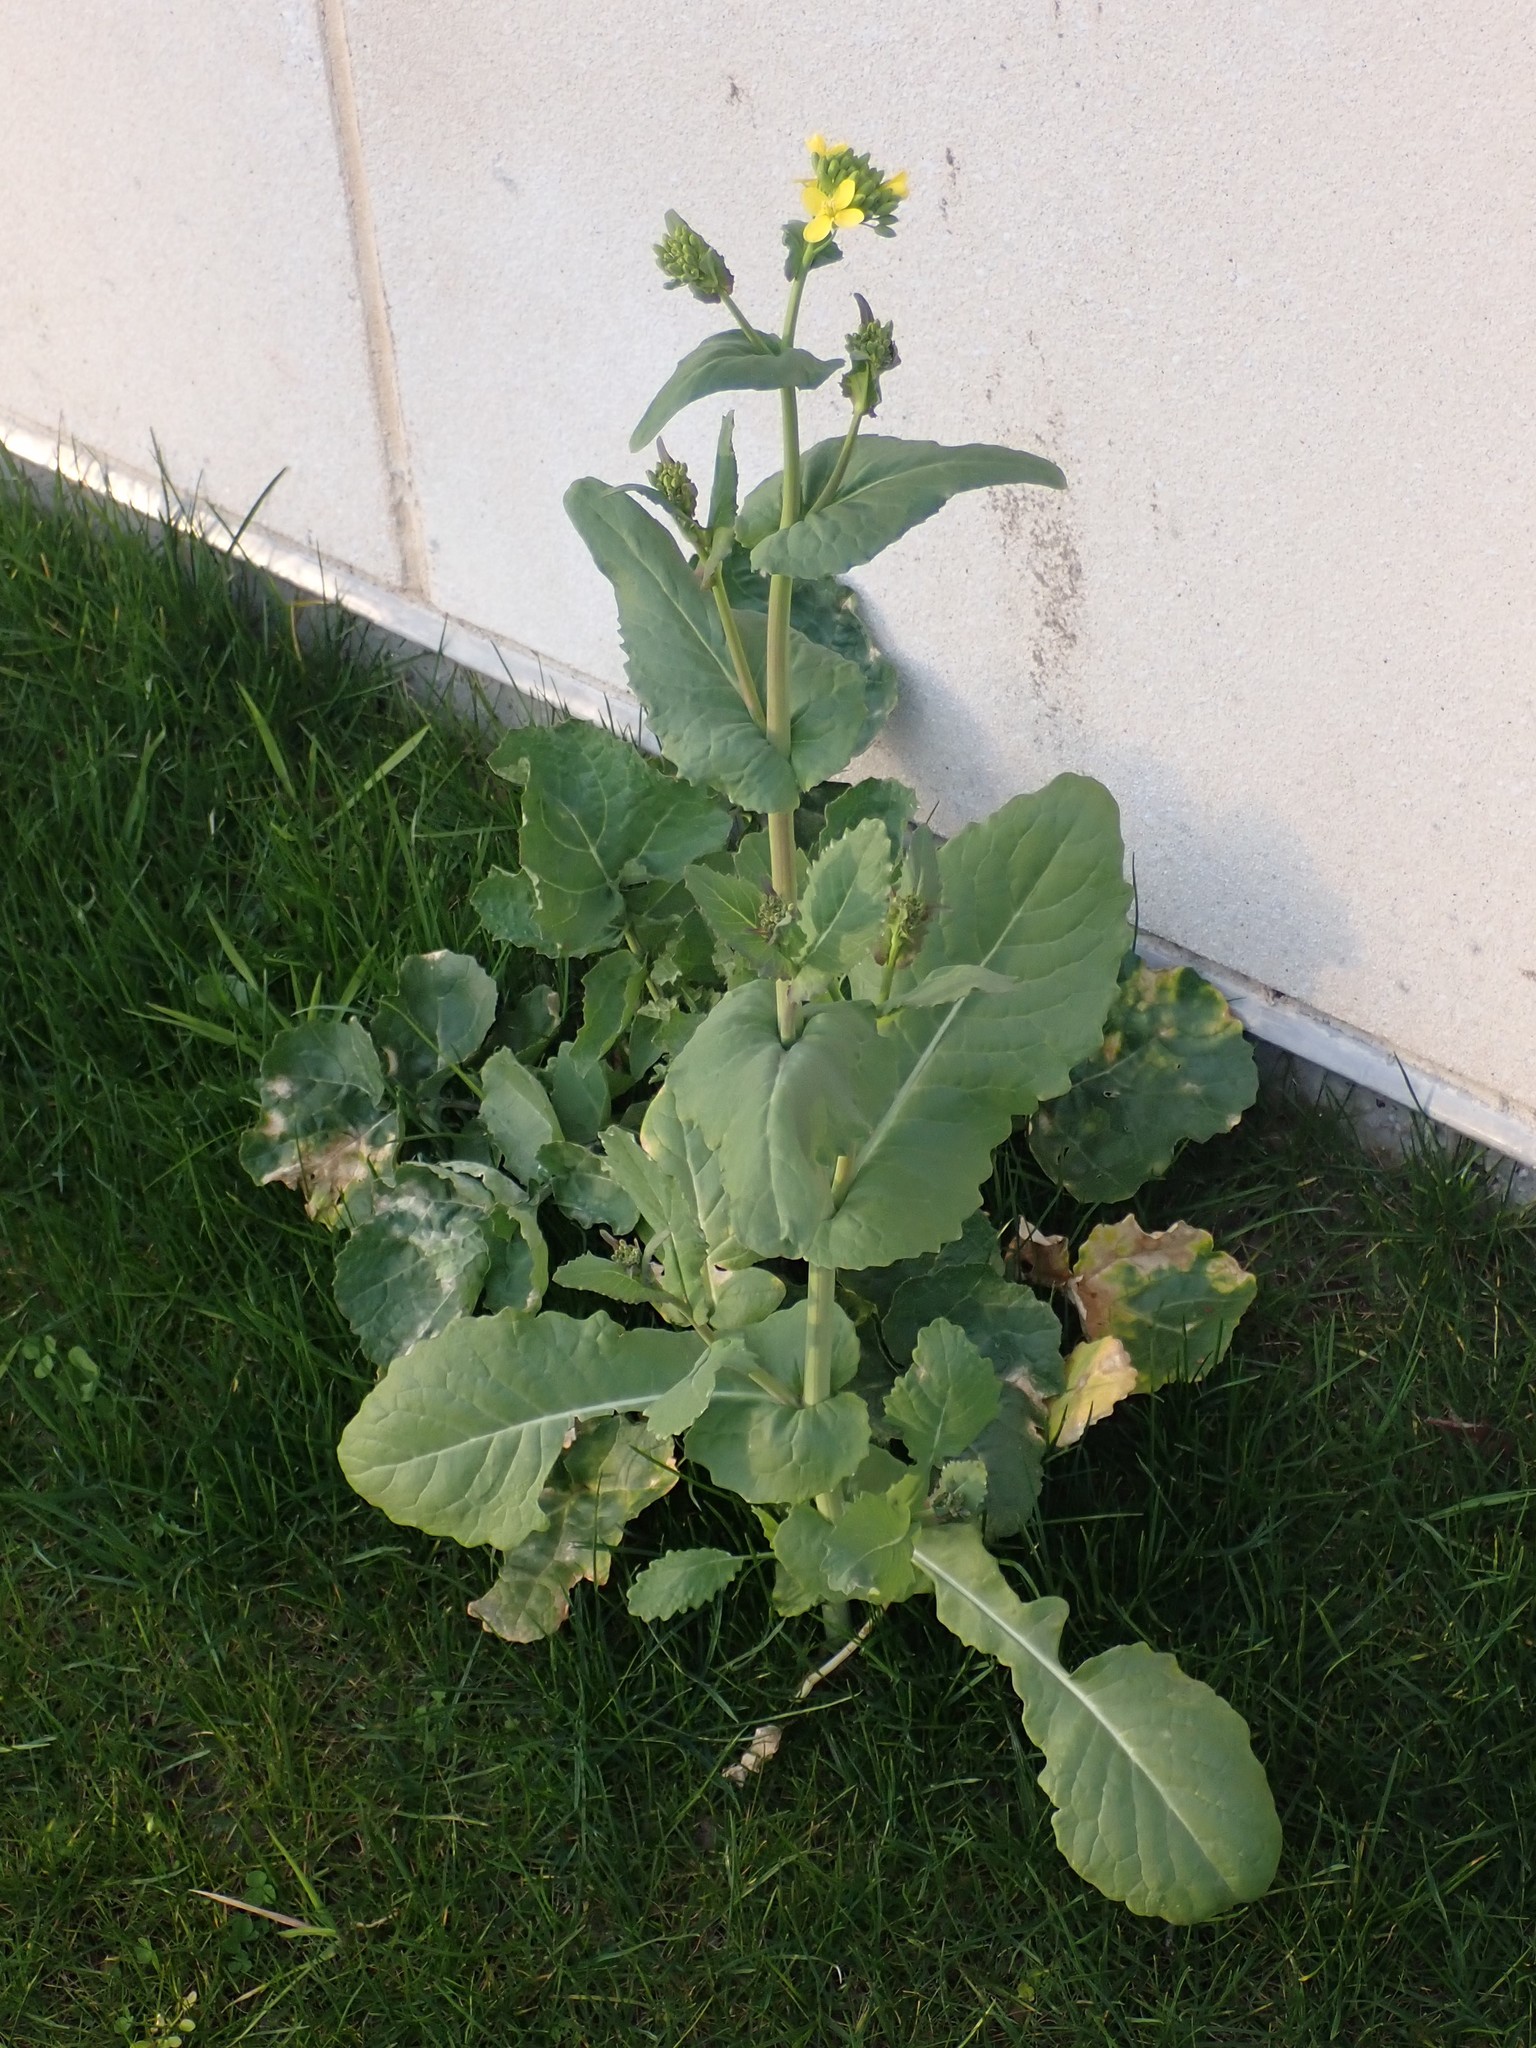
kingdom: Plantae
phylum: Tracheophyta
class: Magnoliopsida
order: Brassicales
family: Brassicaceae
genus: Brassica
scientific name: Brassica rapa
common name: Field mustard
